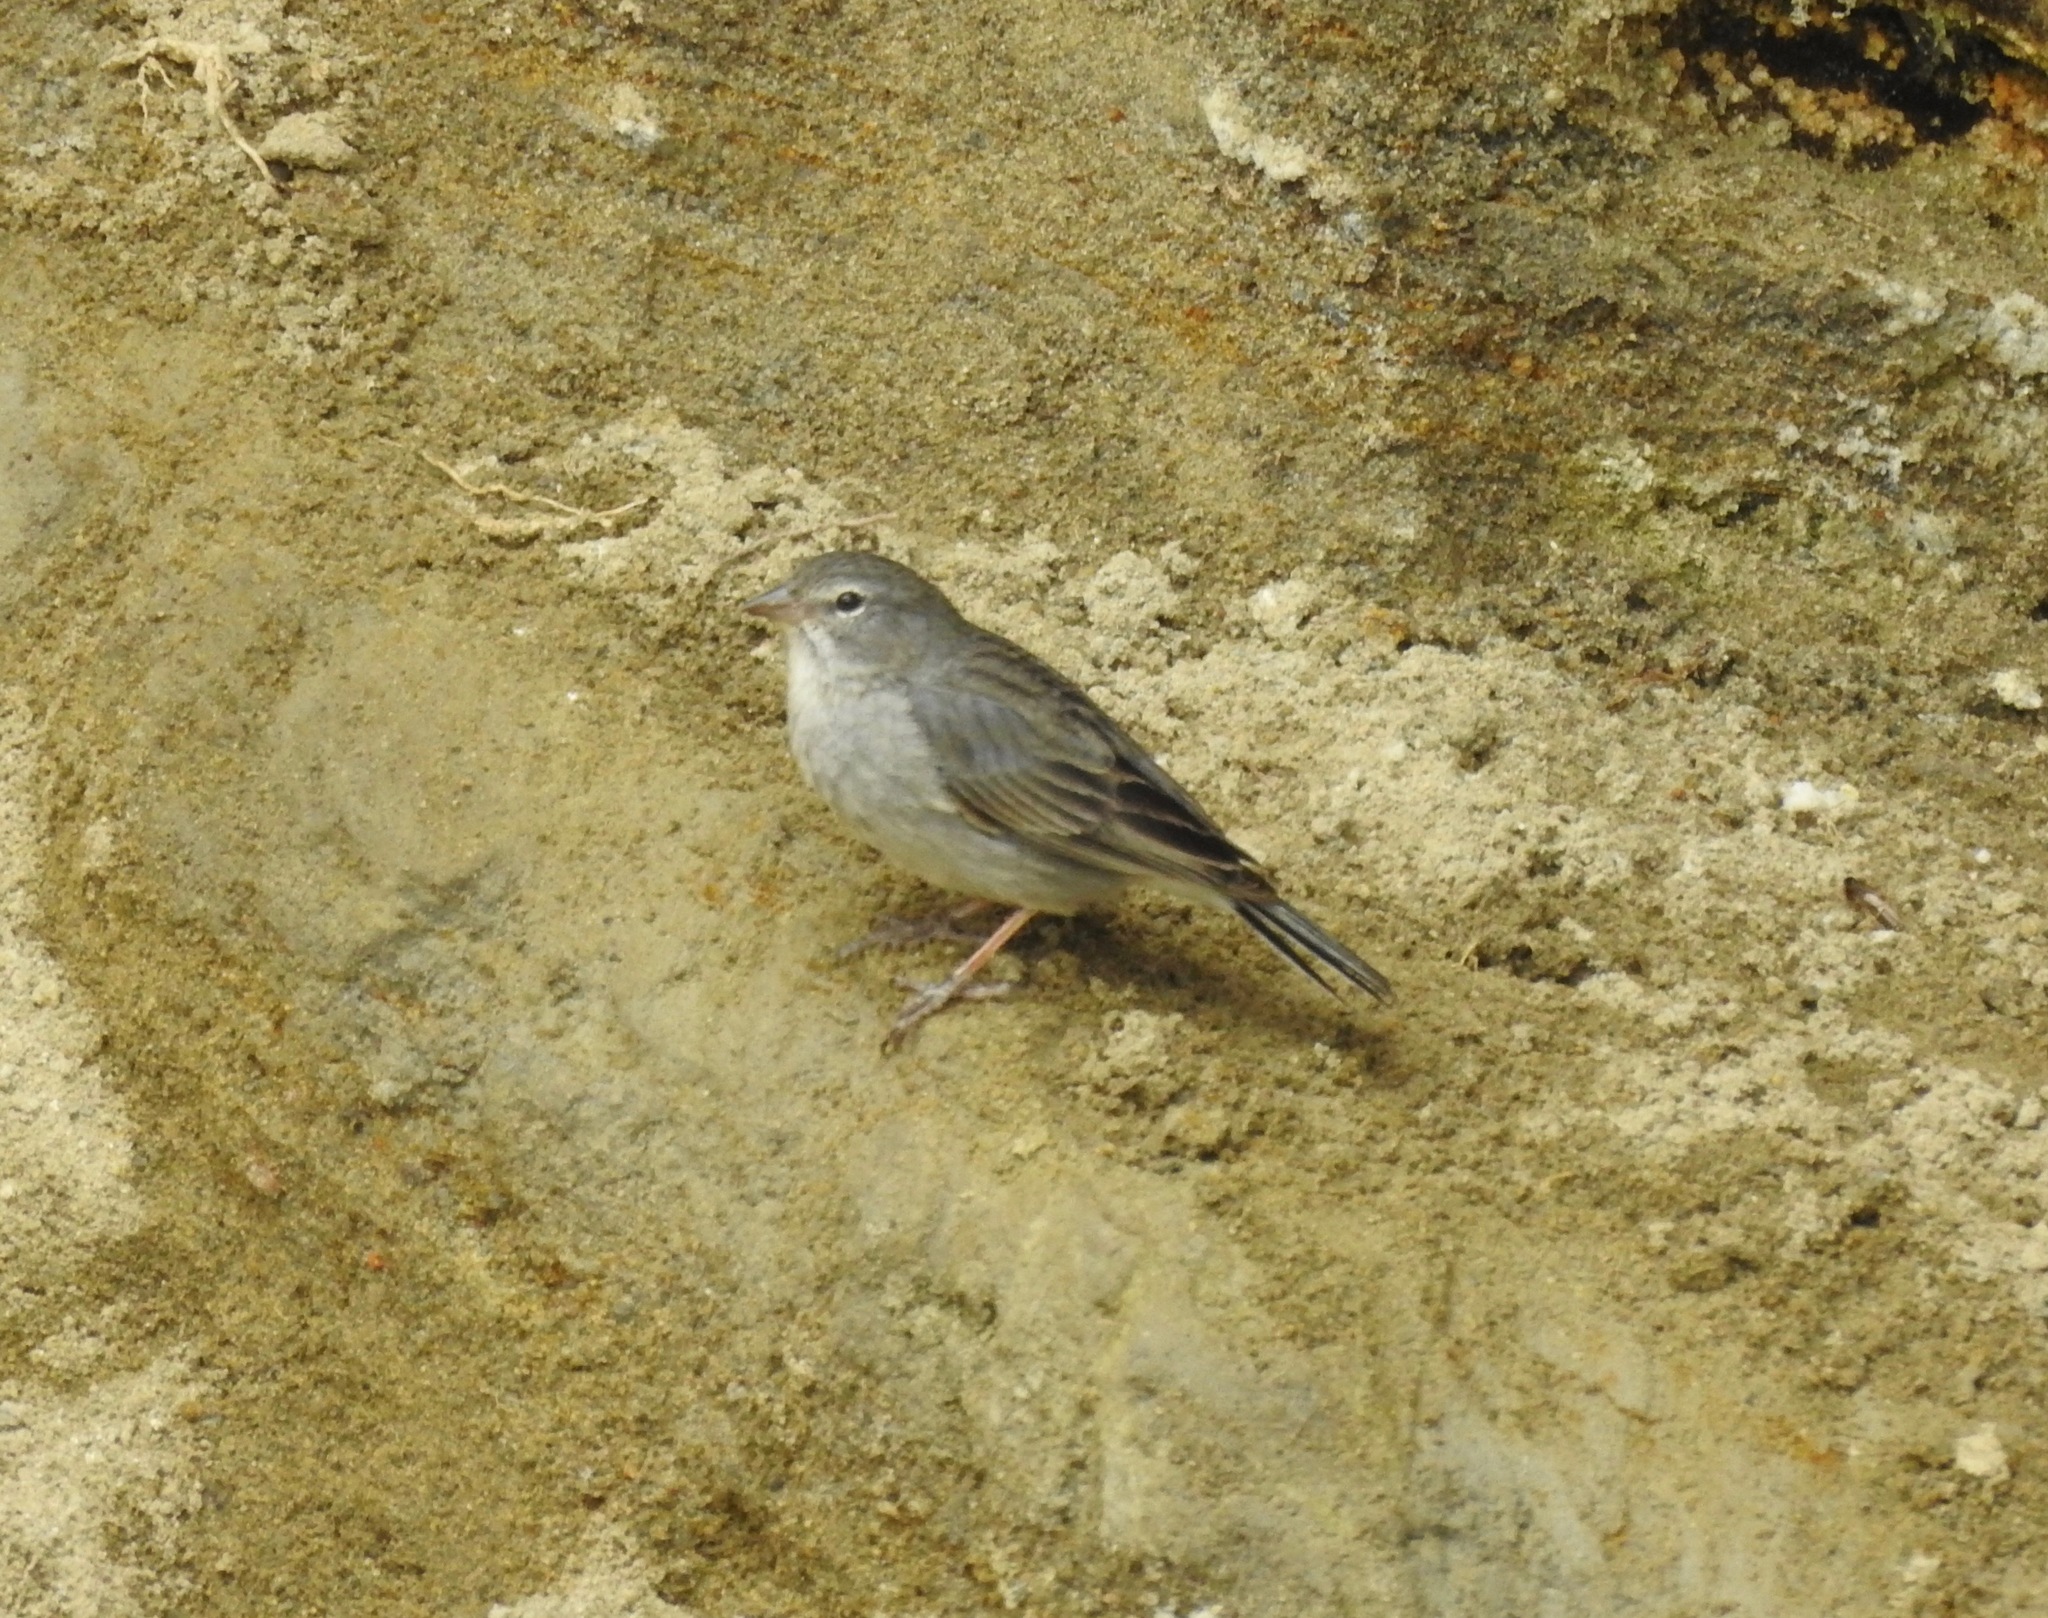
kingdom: Animalia
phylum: Chordata
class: Aves
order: Passeriformes
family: Thraupidae
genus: Geospizopsis
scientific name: Geospizopsis plebejus
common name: Ash-breasted sierra-finch
